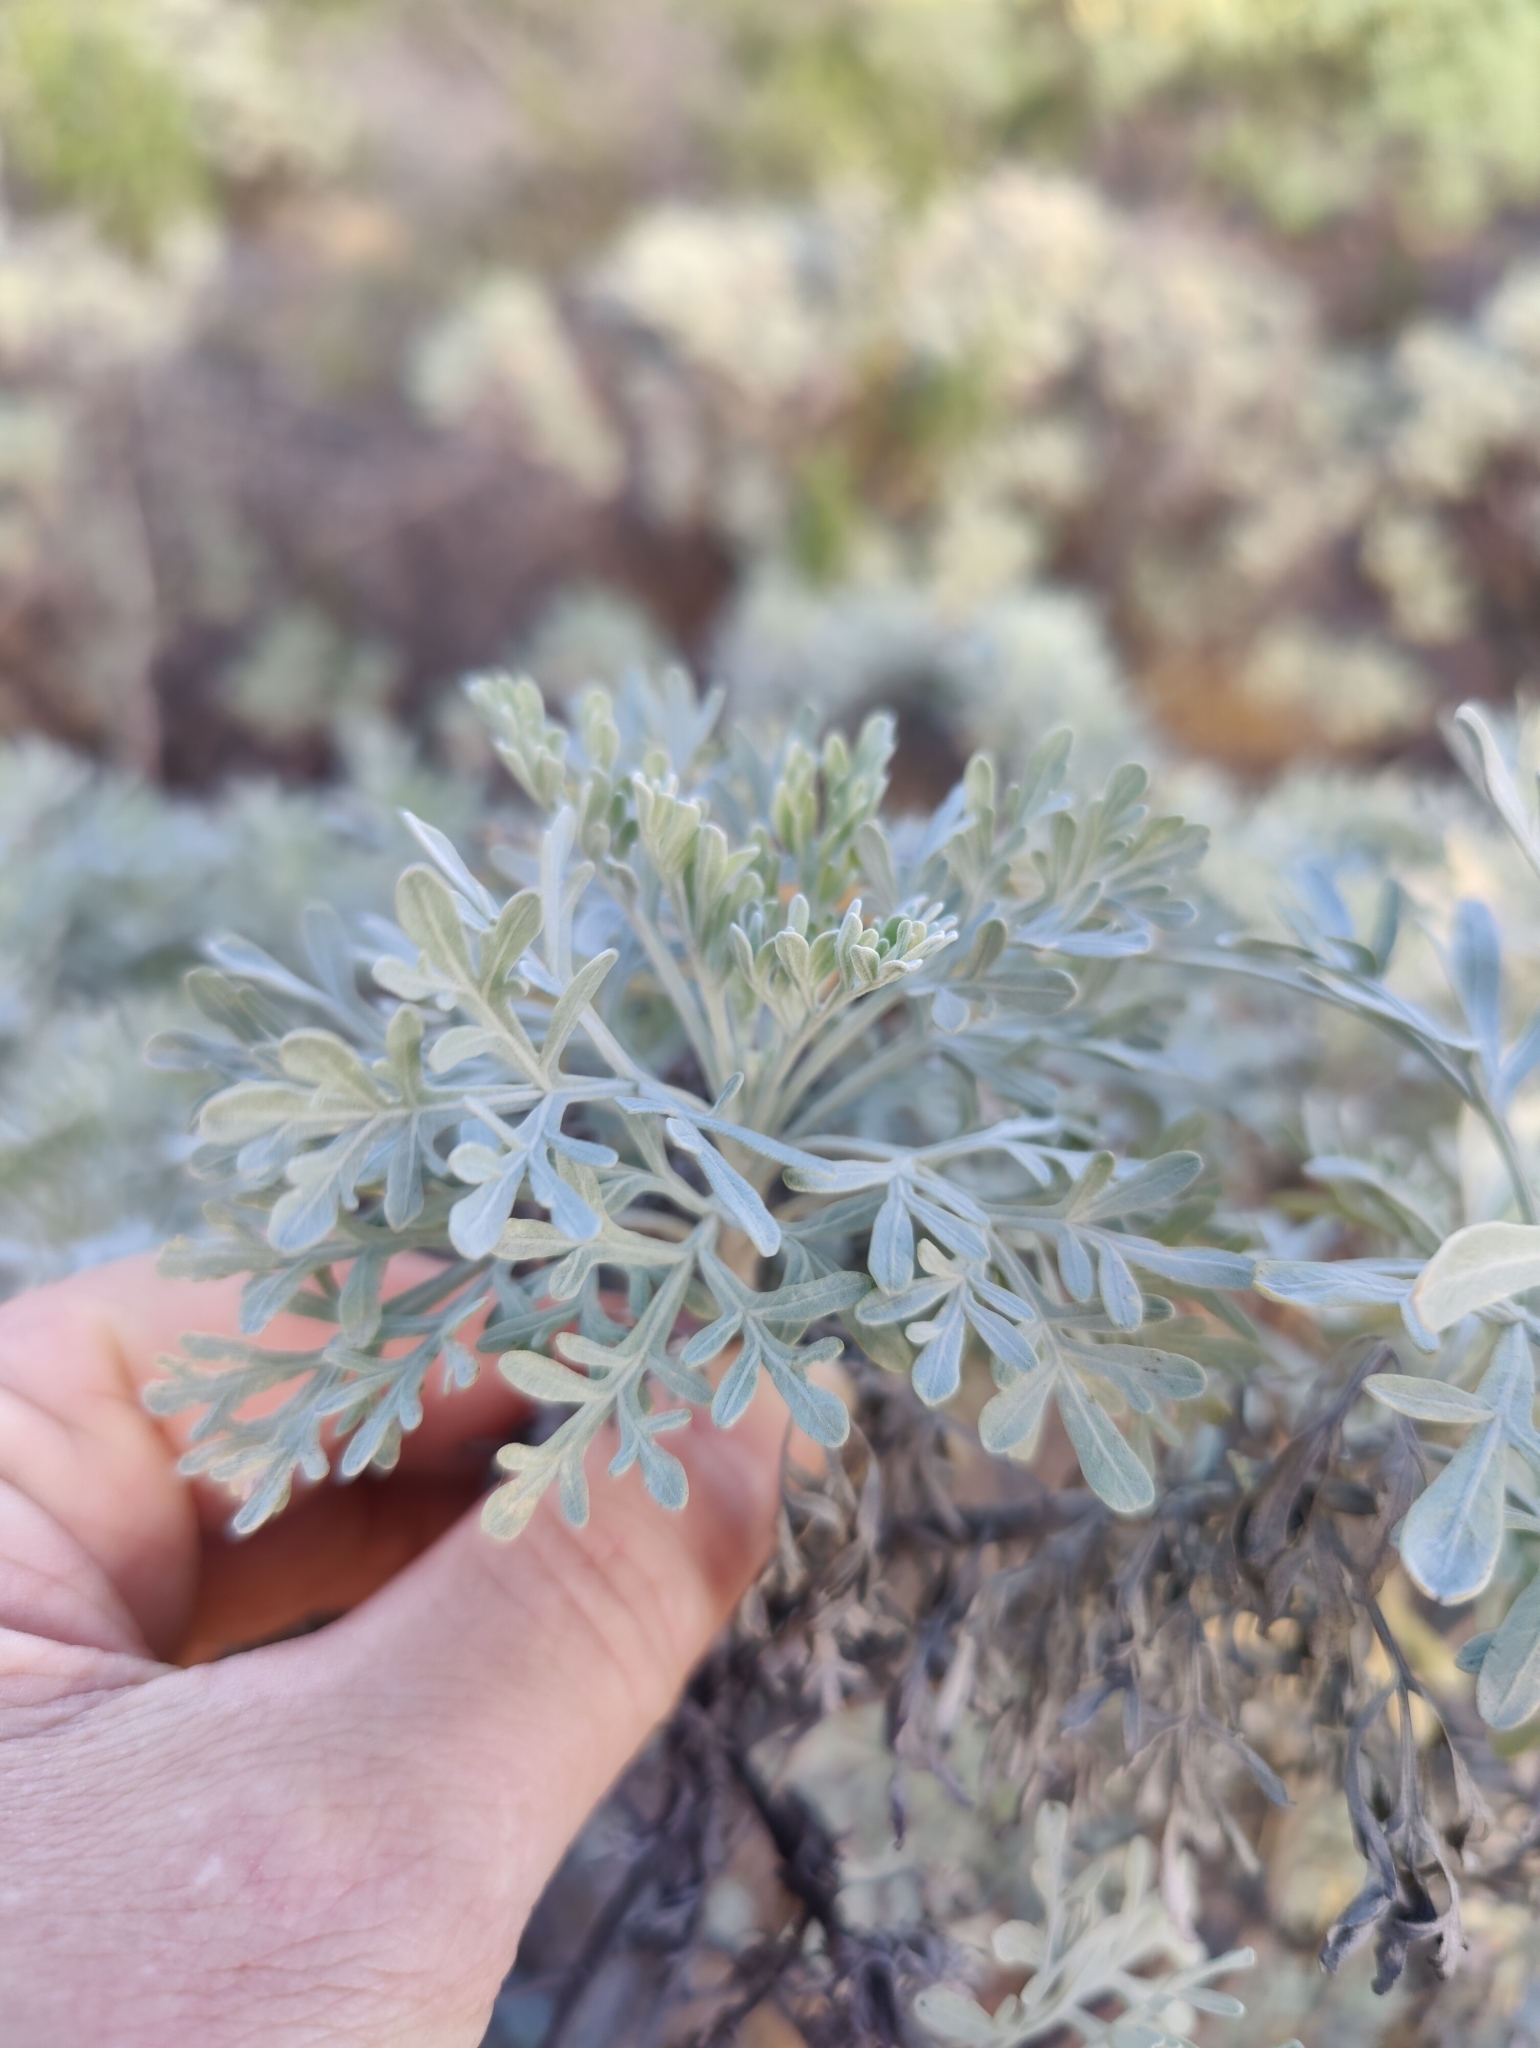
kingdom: Plantae
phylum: Tracheophyta
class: Magnoliopsida
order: Asterales
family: Asteraceae
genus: Artemisia
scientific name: Artemisia thuscula
